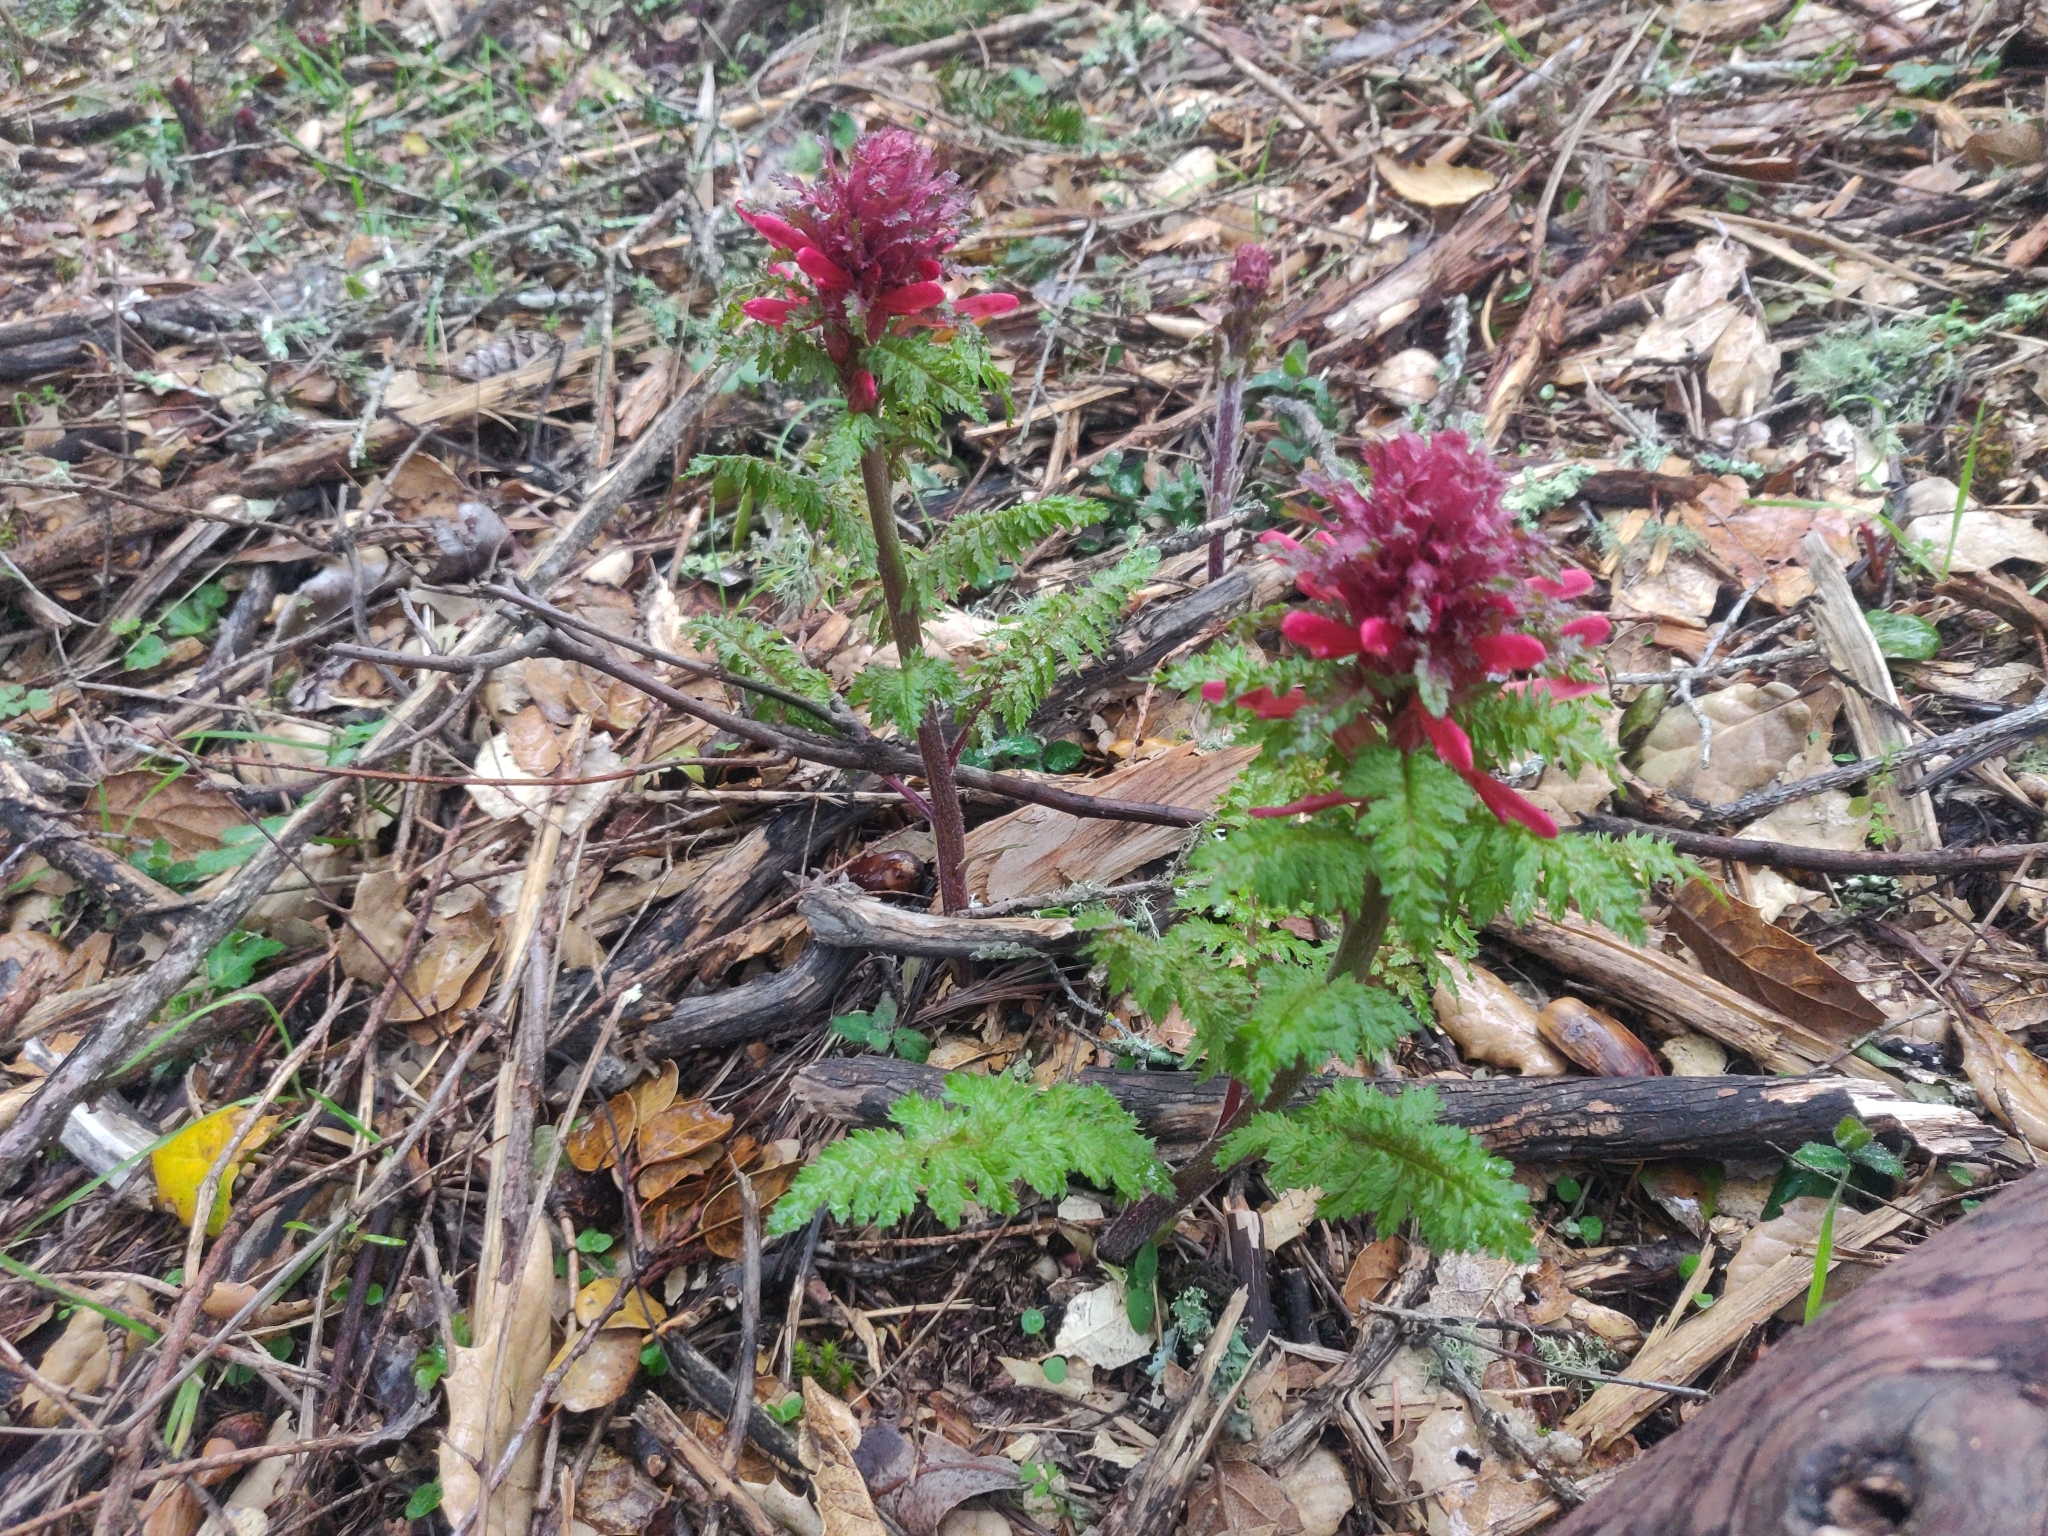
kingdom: Plantae
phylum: Tracheophyta
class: Magnoliopsida
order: Lamiales
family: Orobanchaceae
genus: Pedicularis
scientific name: Pedicularis densiflora
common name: Indian warrior
